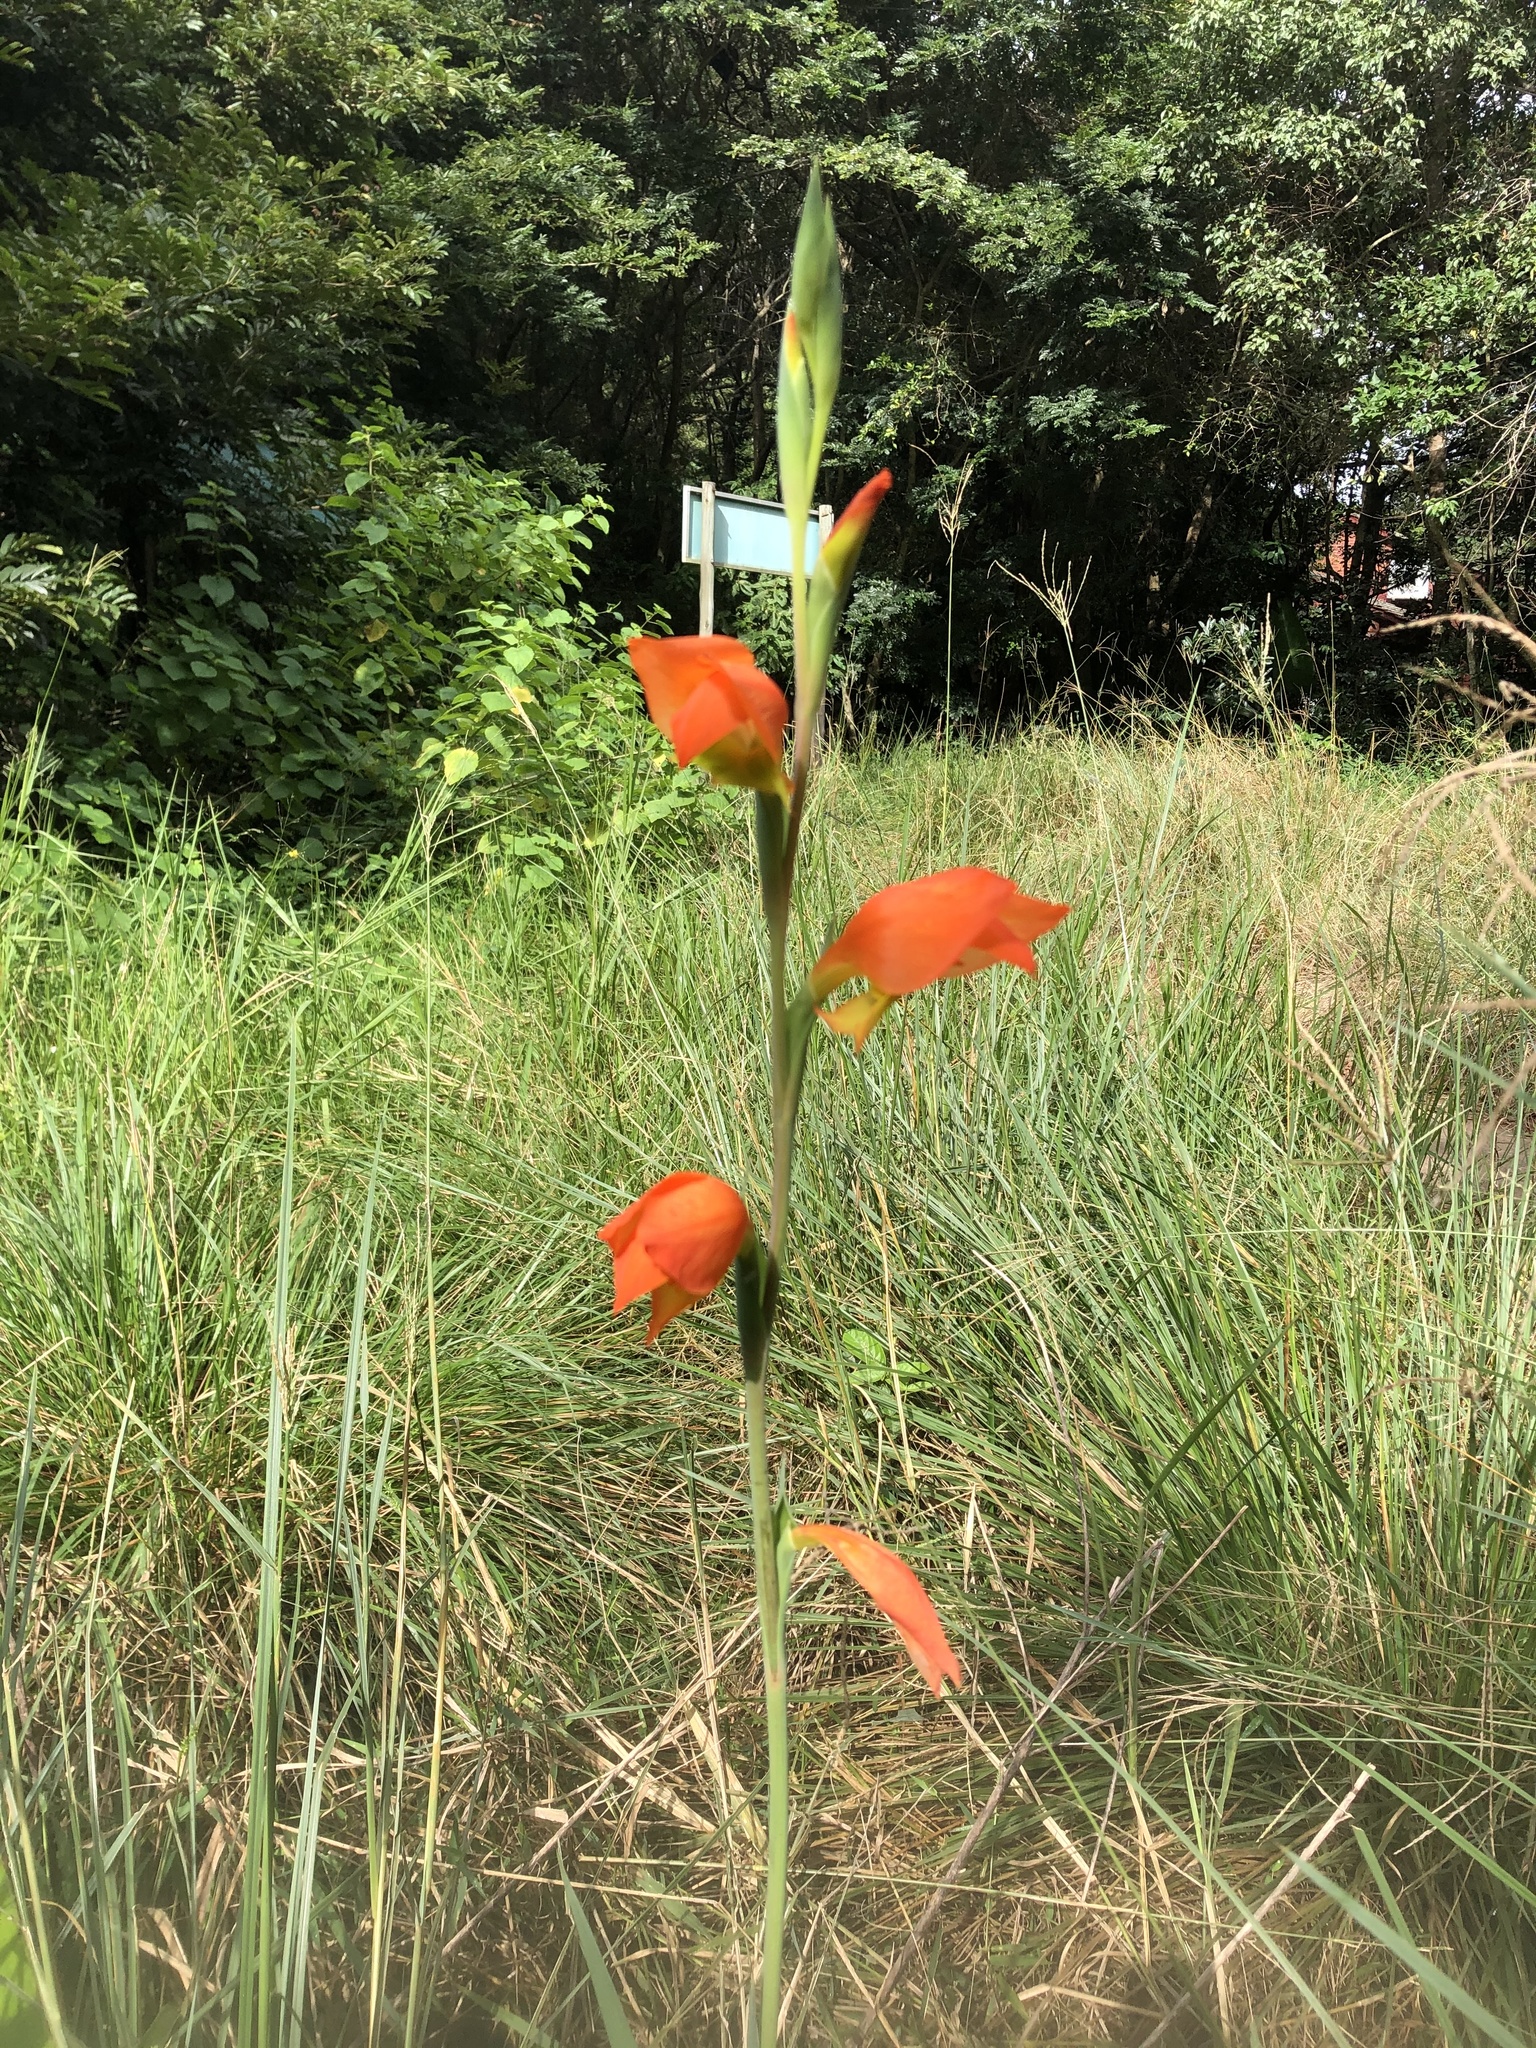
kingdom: Plantae
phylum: Tracheophyta
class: Liliopsida
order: Asparagales
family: Iridaceae
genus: Gladiolus
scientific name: Gladiolus dalenii
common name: Cornflag
